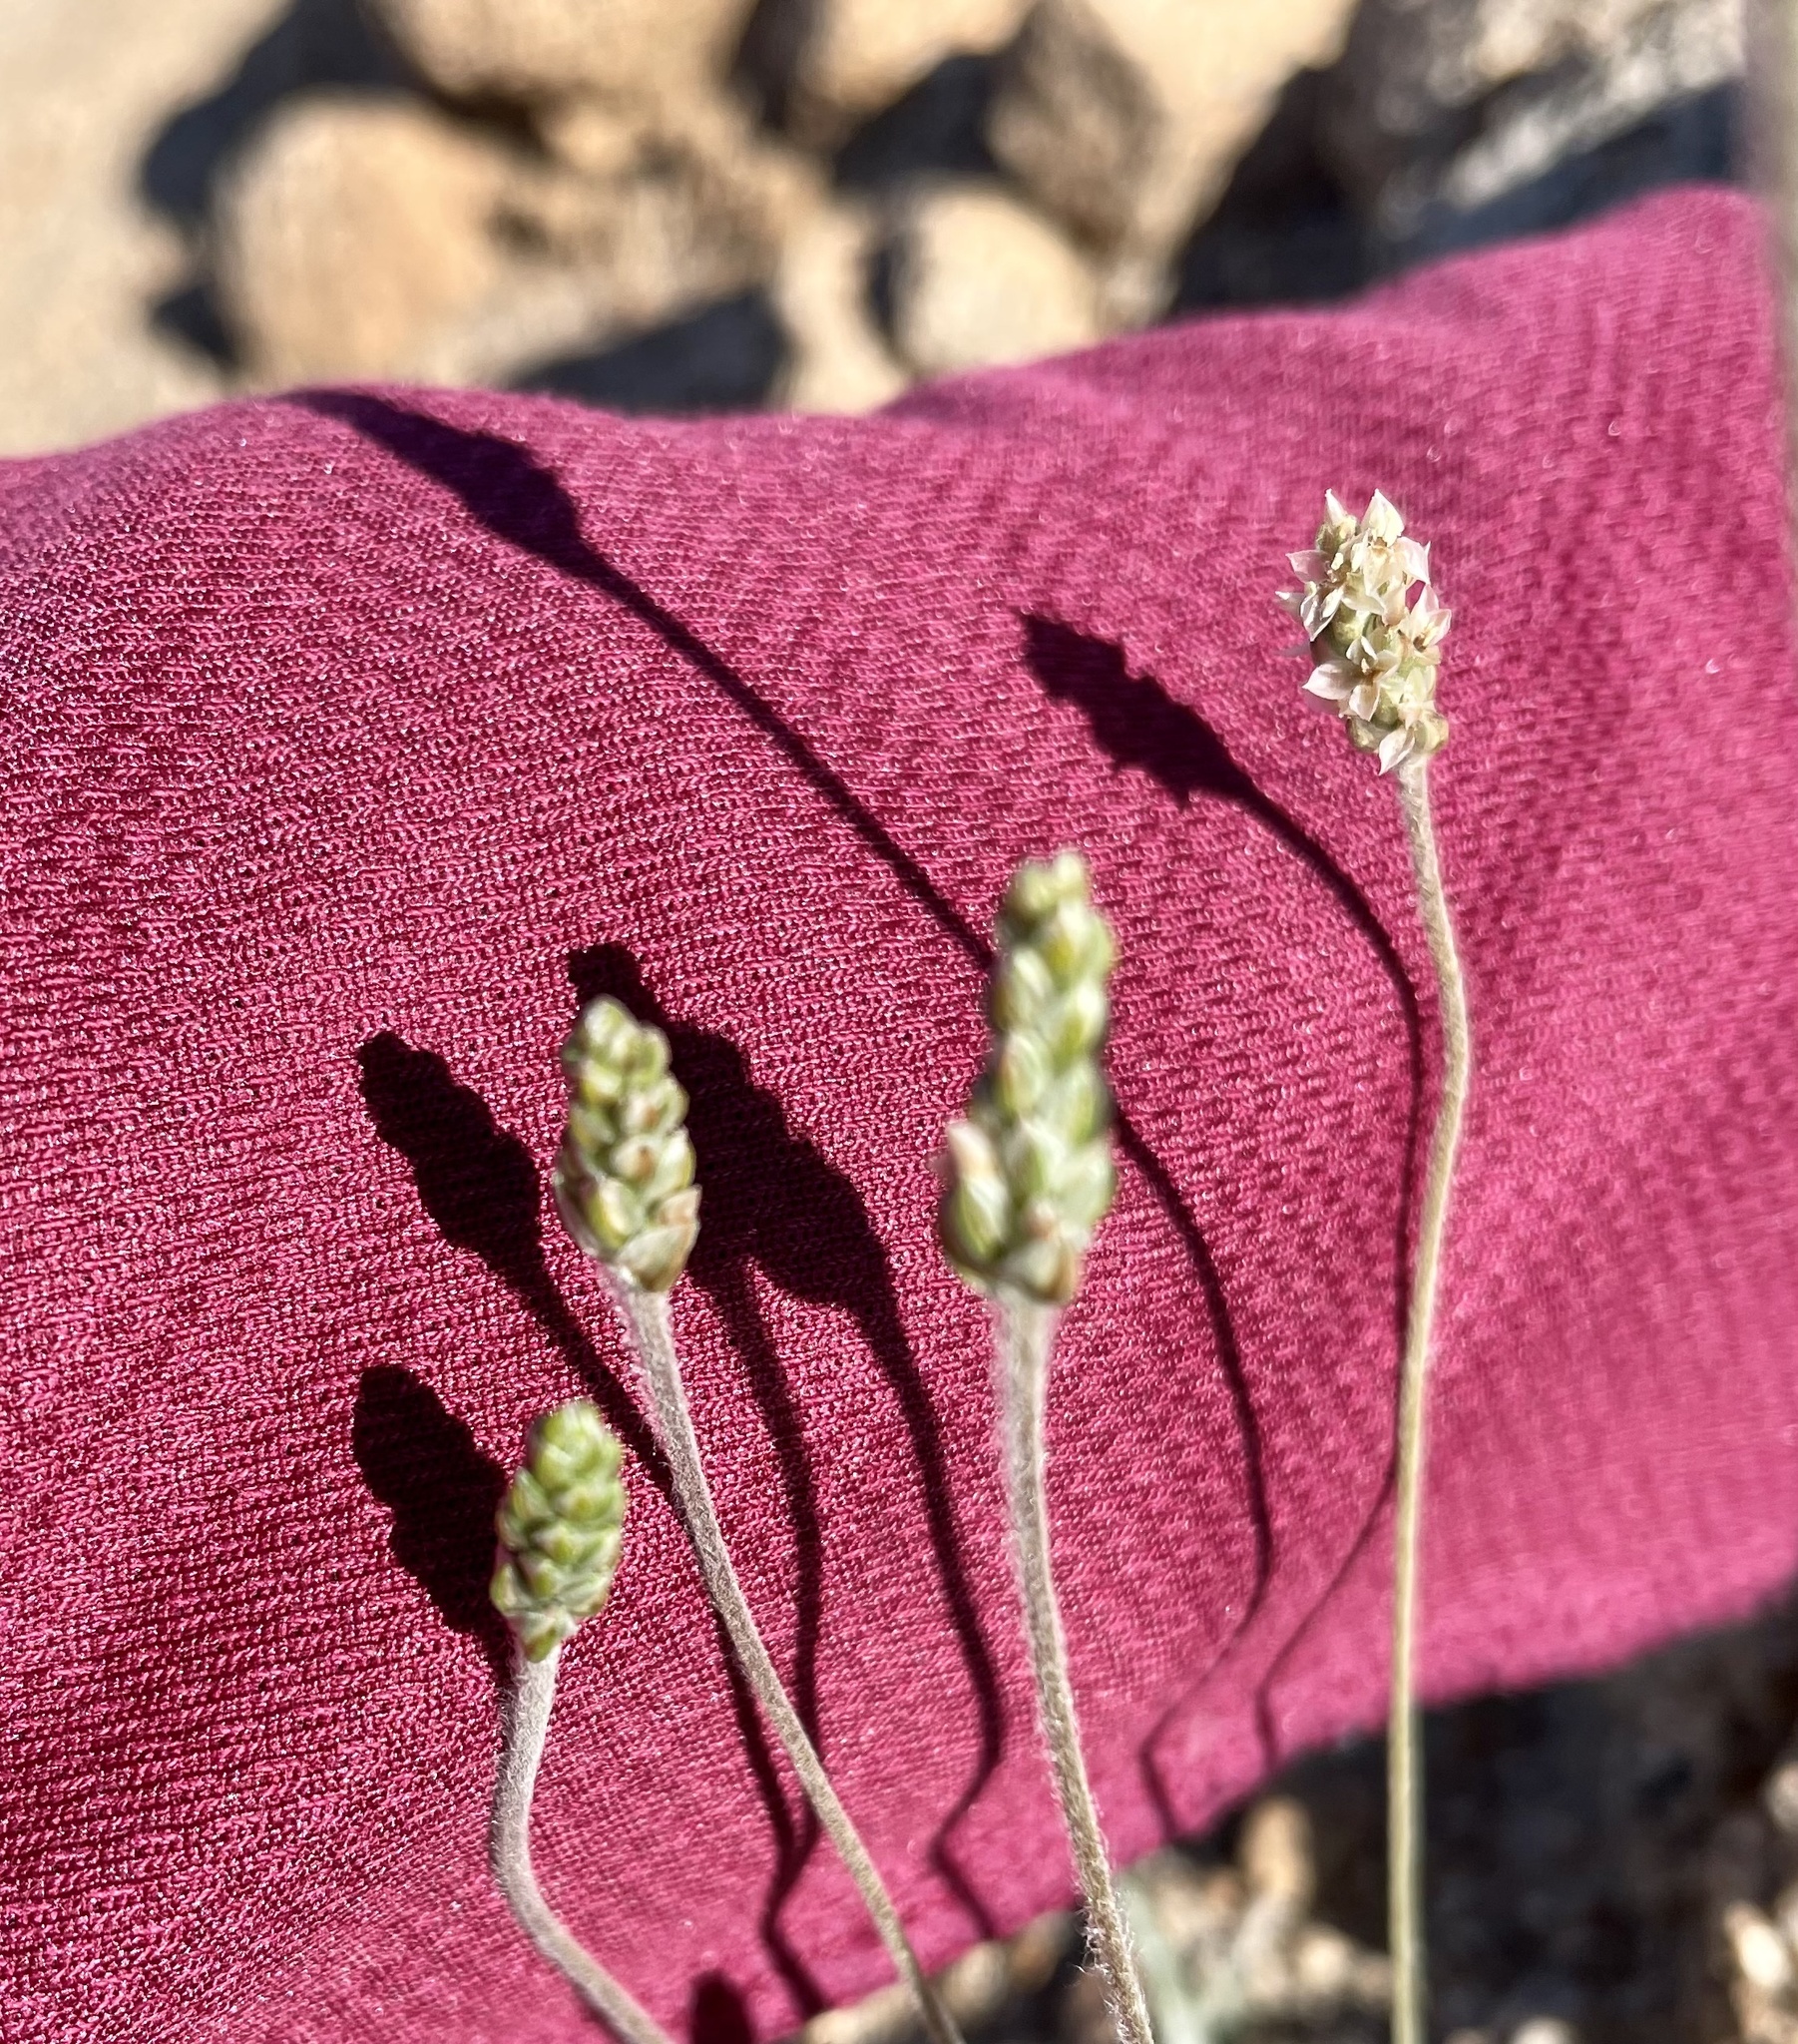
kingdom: Plantae
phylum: Tracheophyta
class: Magnoliopsida
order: Lamiales
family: Plantaginaceae
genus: Plantago
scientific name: Plantago ovata
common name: Blond plantain
